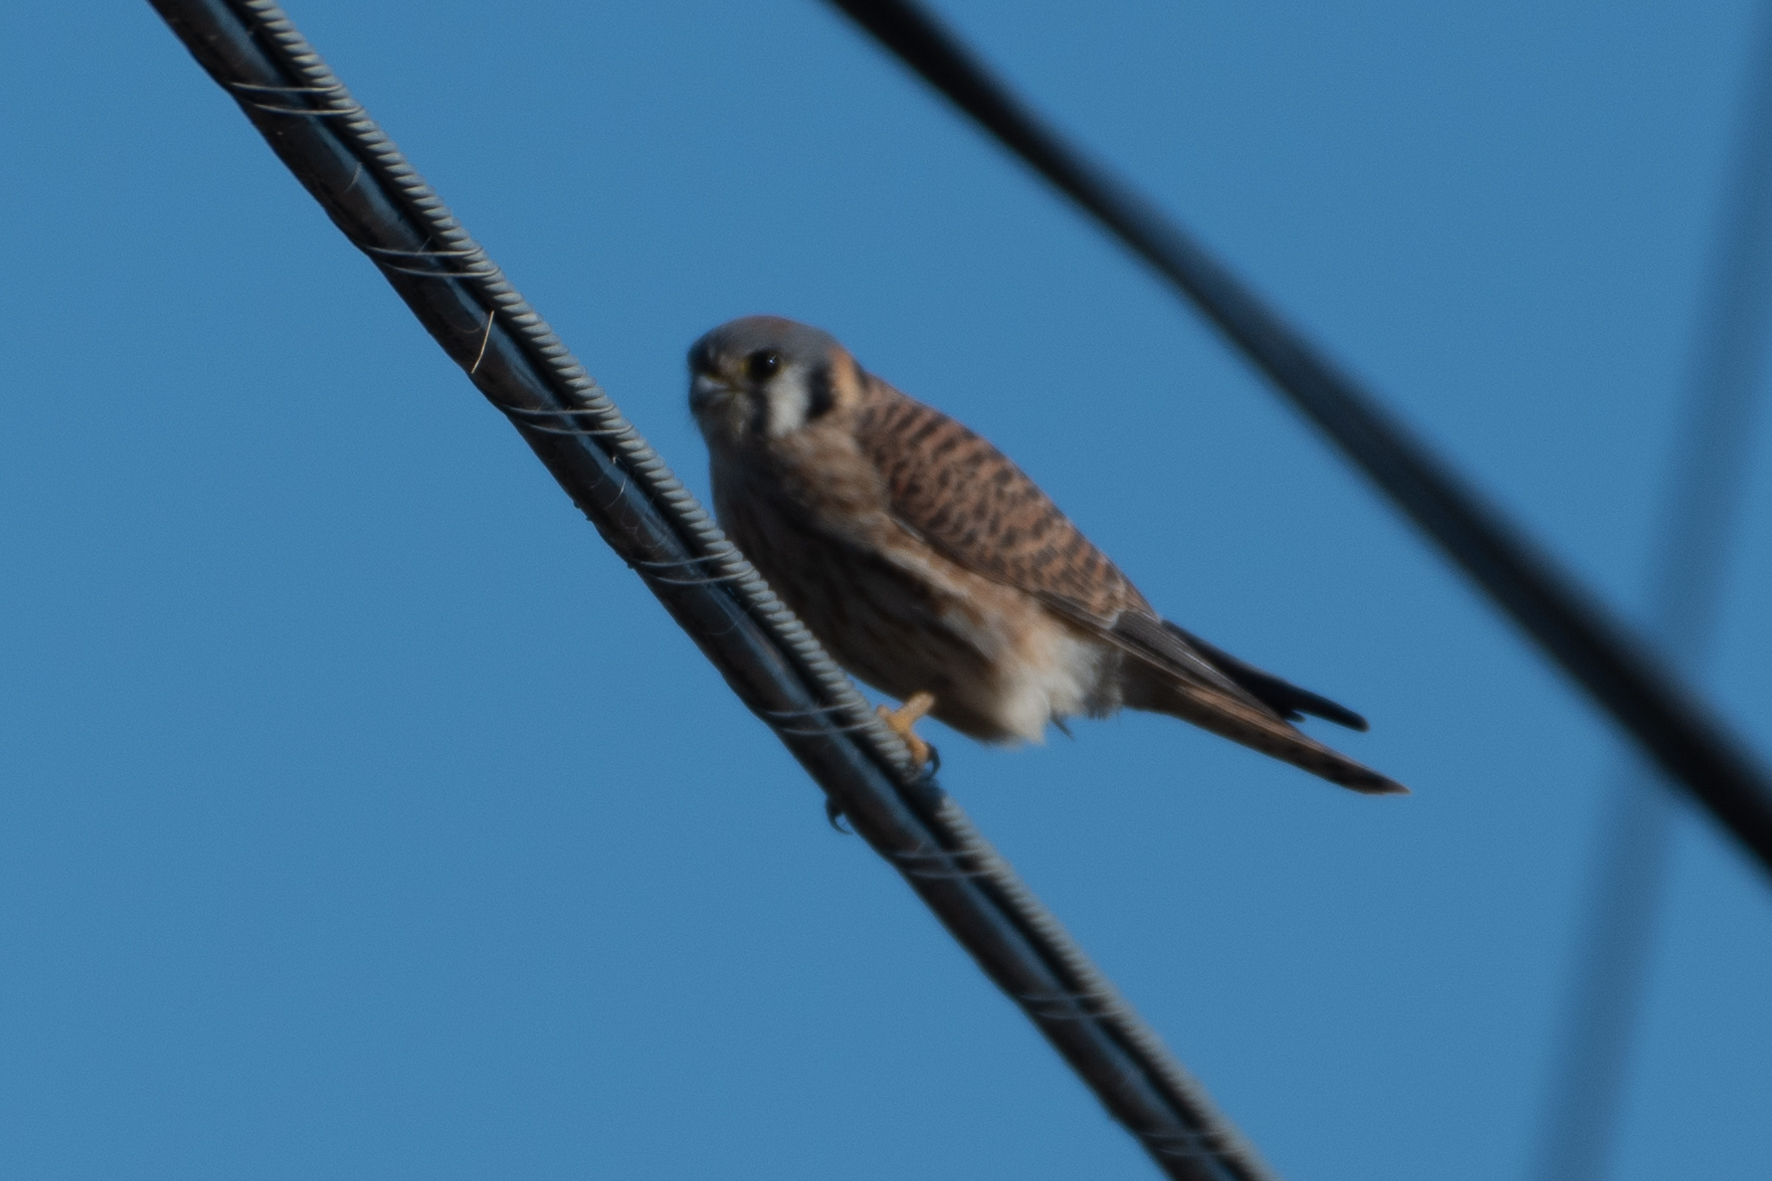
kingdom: Animalia
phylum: Chordata
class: Aves
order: Falconiformes
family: Falconidae
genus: Falco
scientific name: Falco sparverius
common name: American kestrel
